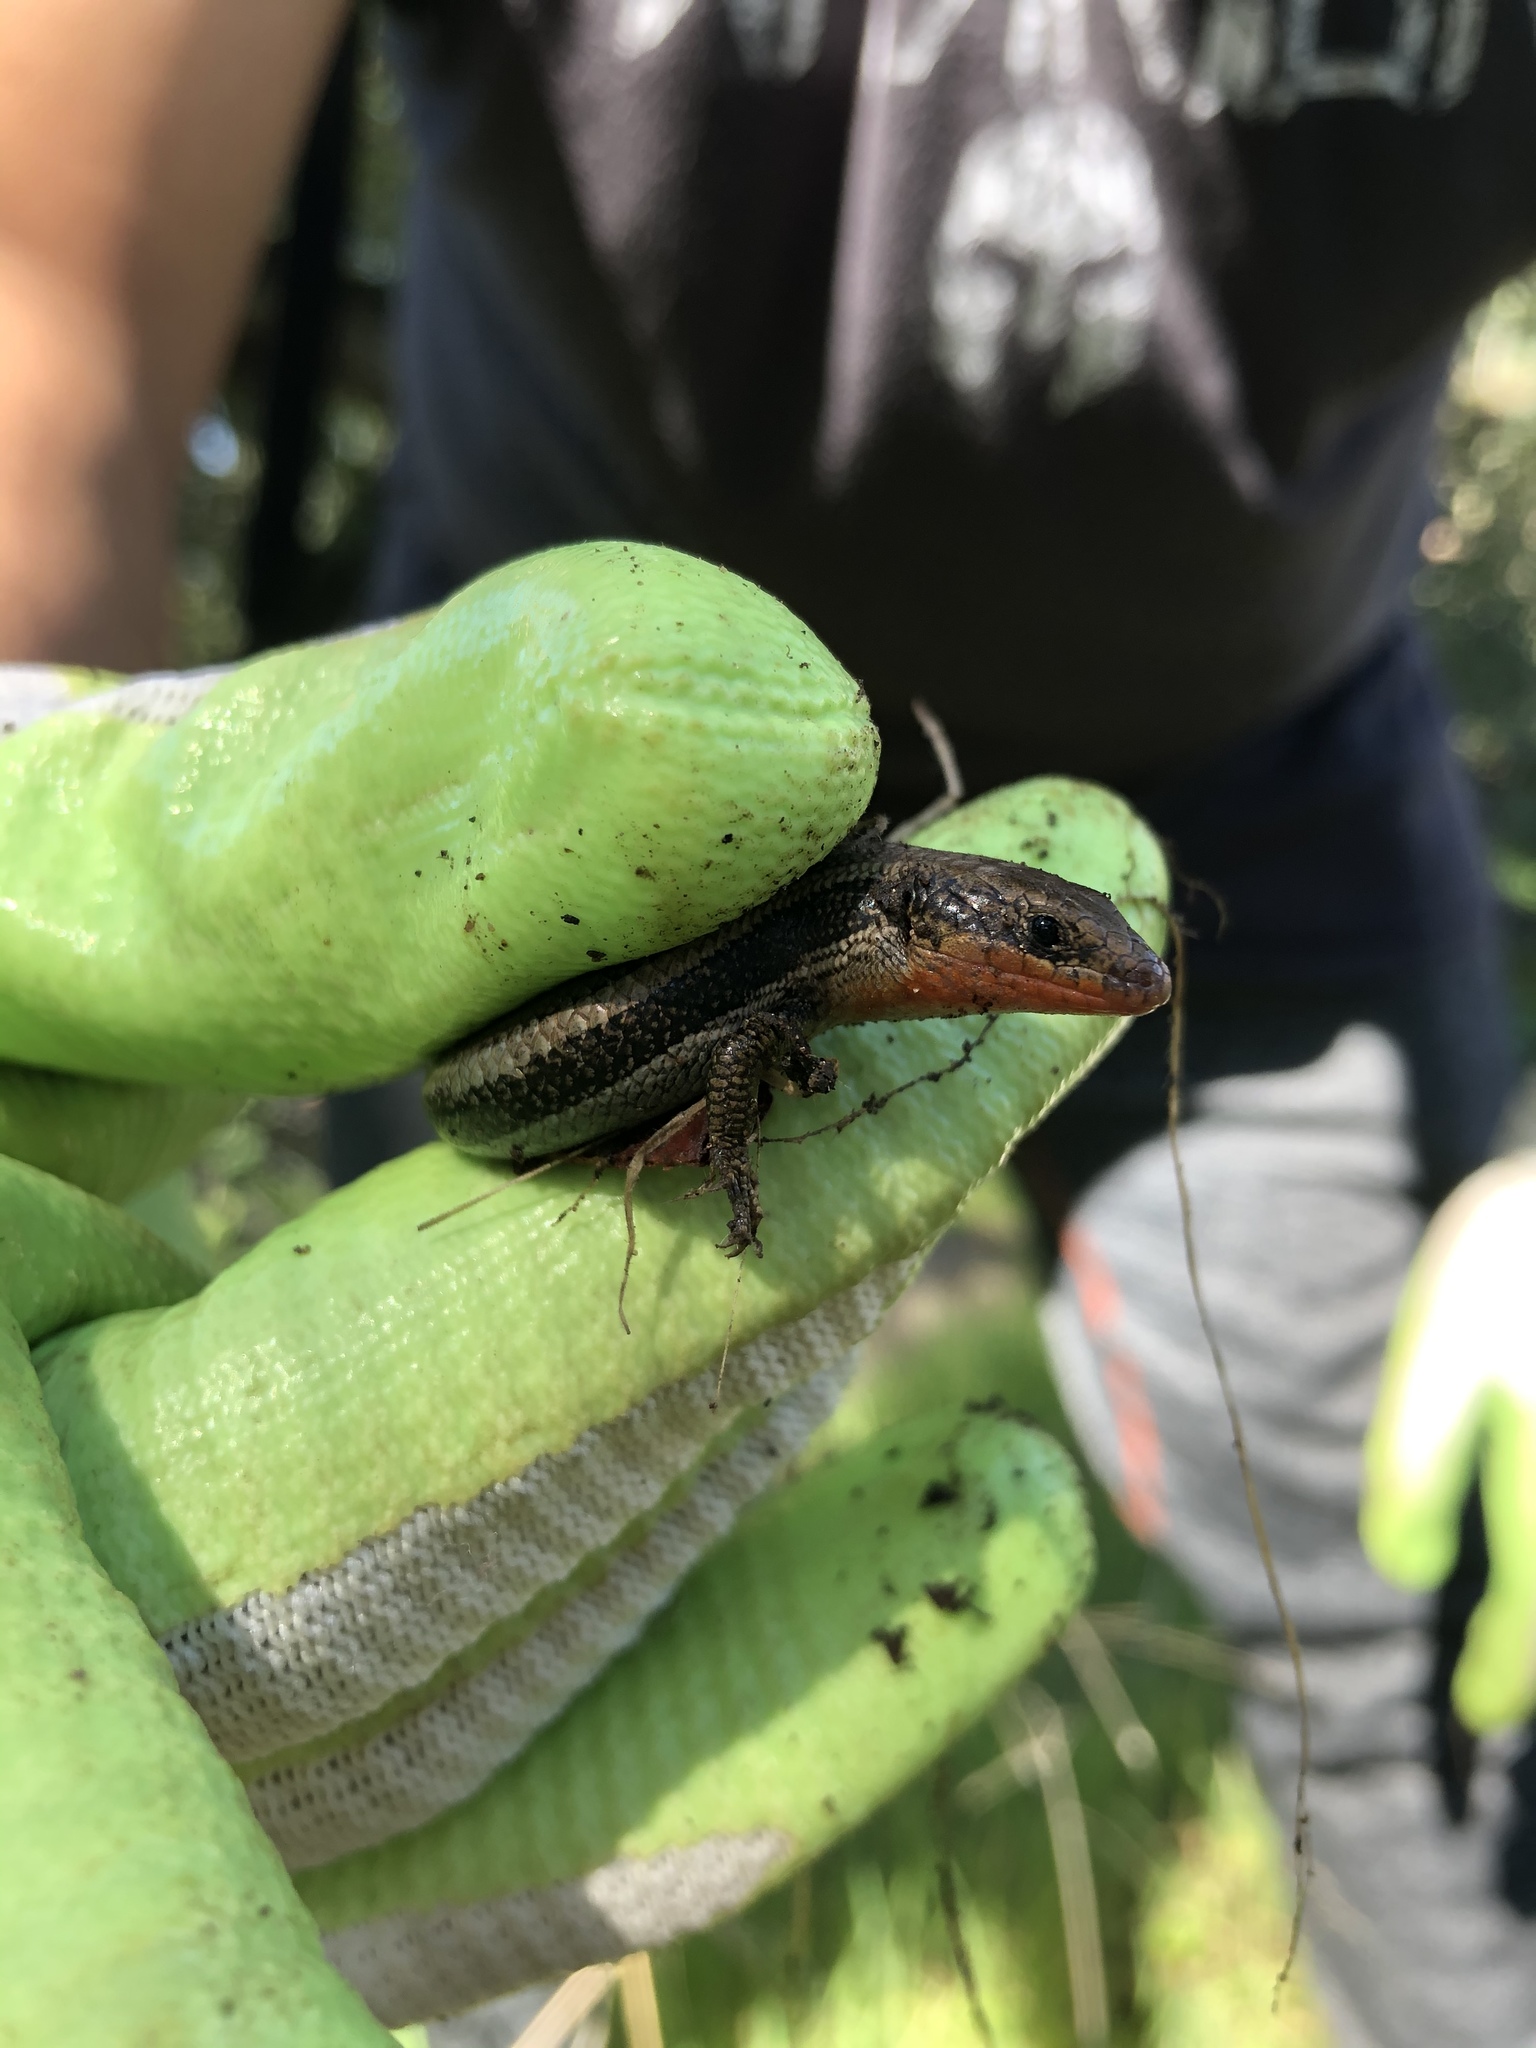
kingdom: Animalia
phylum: Chordata
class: Squamata
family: Scincidae
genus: Plestiodon
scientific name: Plestiodon skiltonianus
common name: Coronado island skink [interparietalis]
